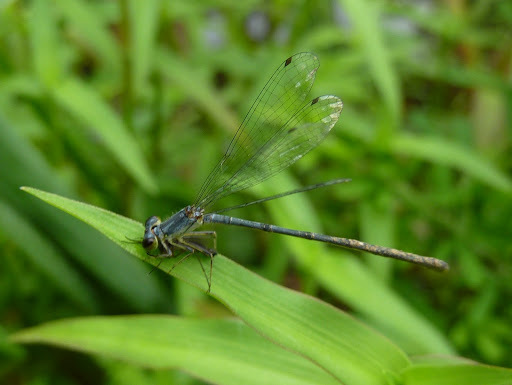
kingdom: Animalia
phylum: Arthropoda
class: Insecta
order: Odonata
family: Coenagrionidae
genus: Ischnura
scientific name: Ischnura posita
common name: Fragile forktail
